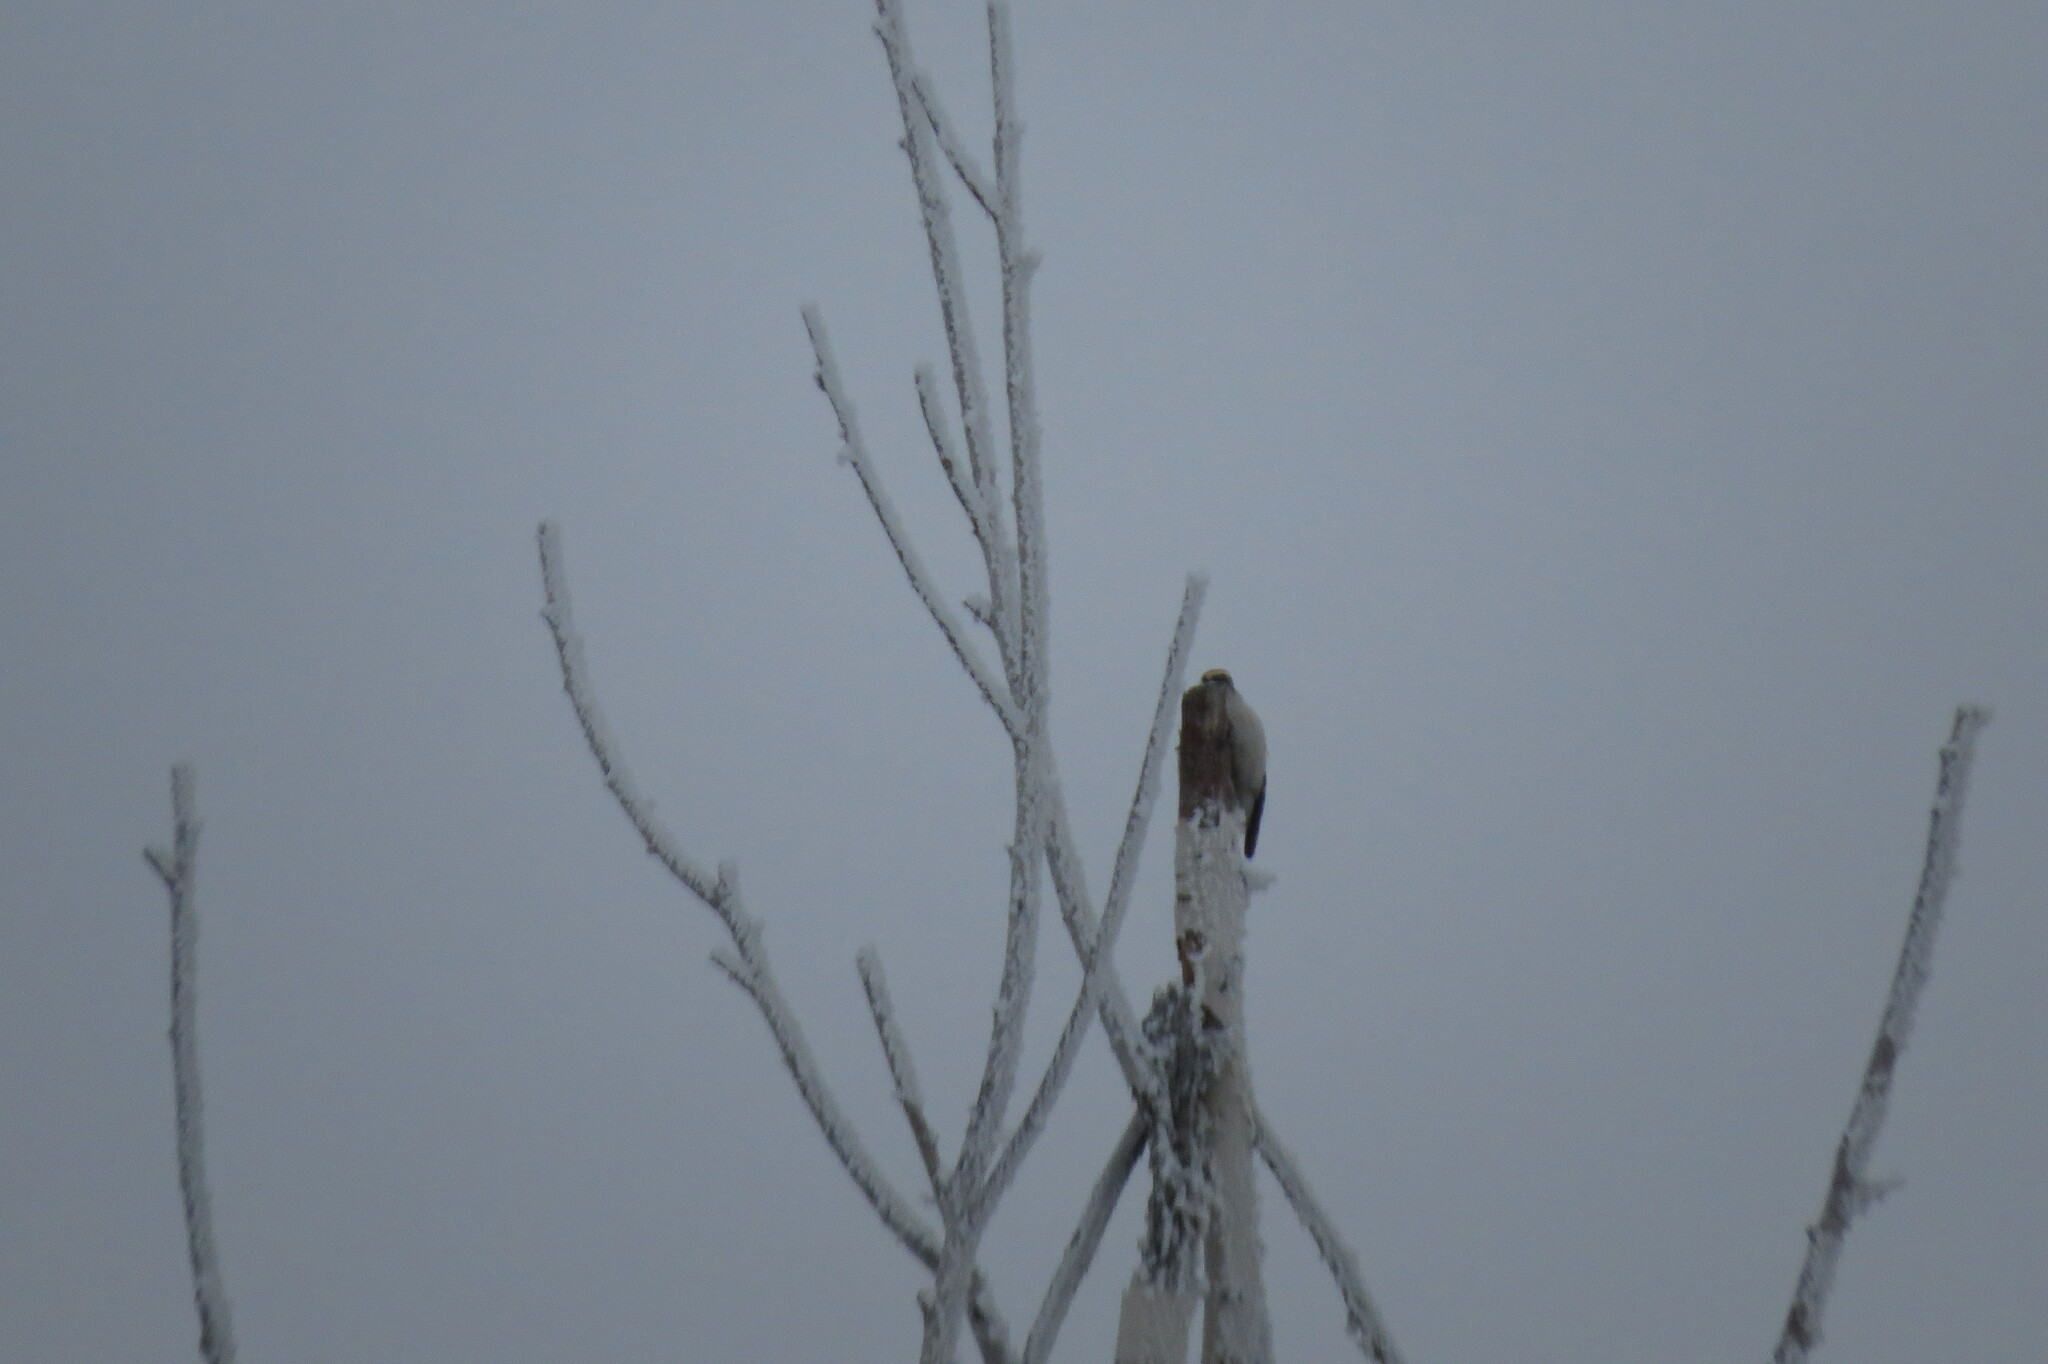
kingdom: Animalia
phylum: Chordata
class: Aves
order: Piciformes
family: Picidae
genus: Dryobates
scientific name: Dryobates minor
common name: Lesser spotted woodpecker
